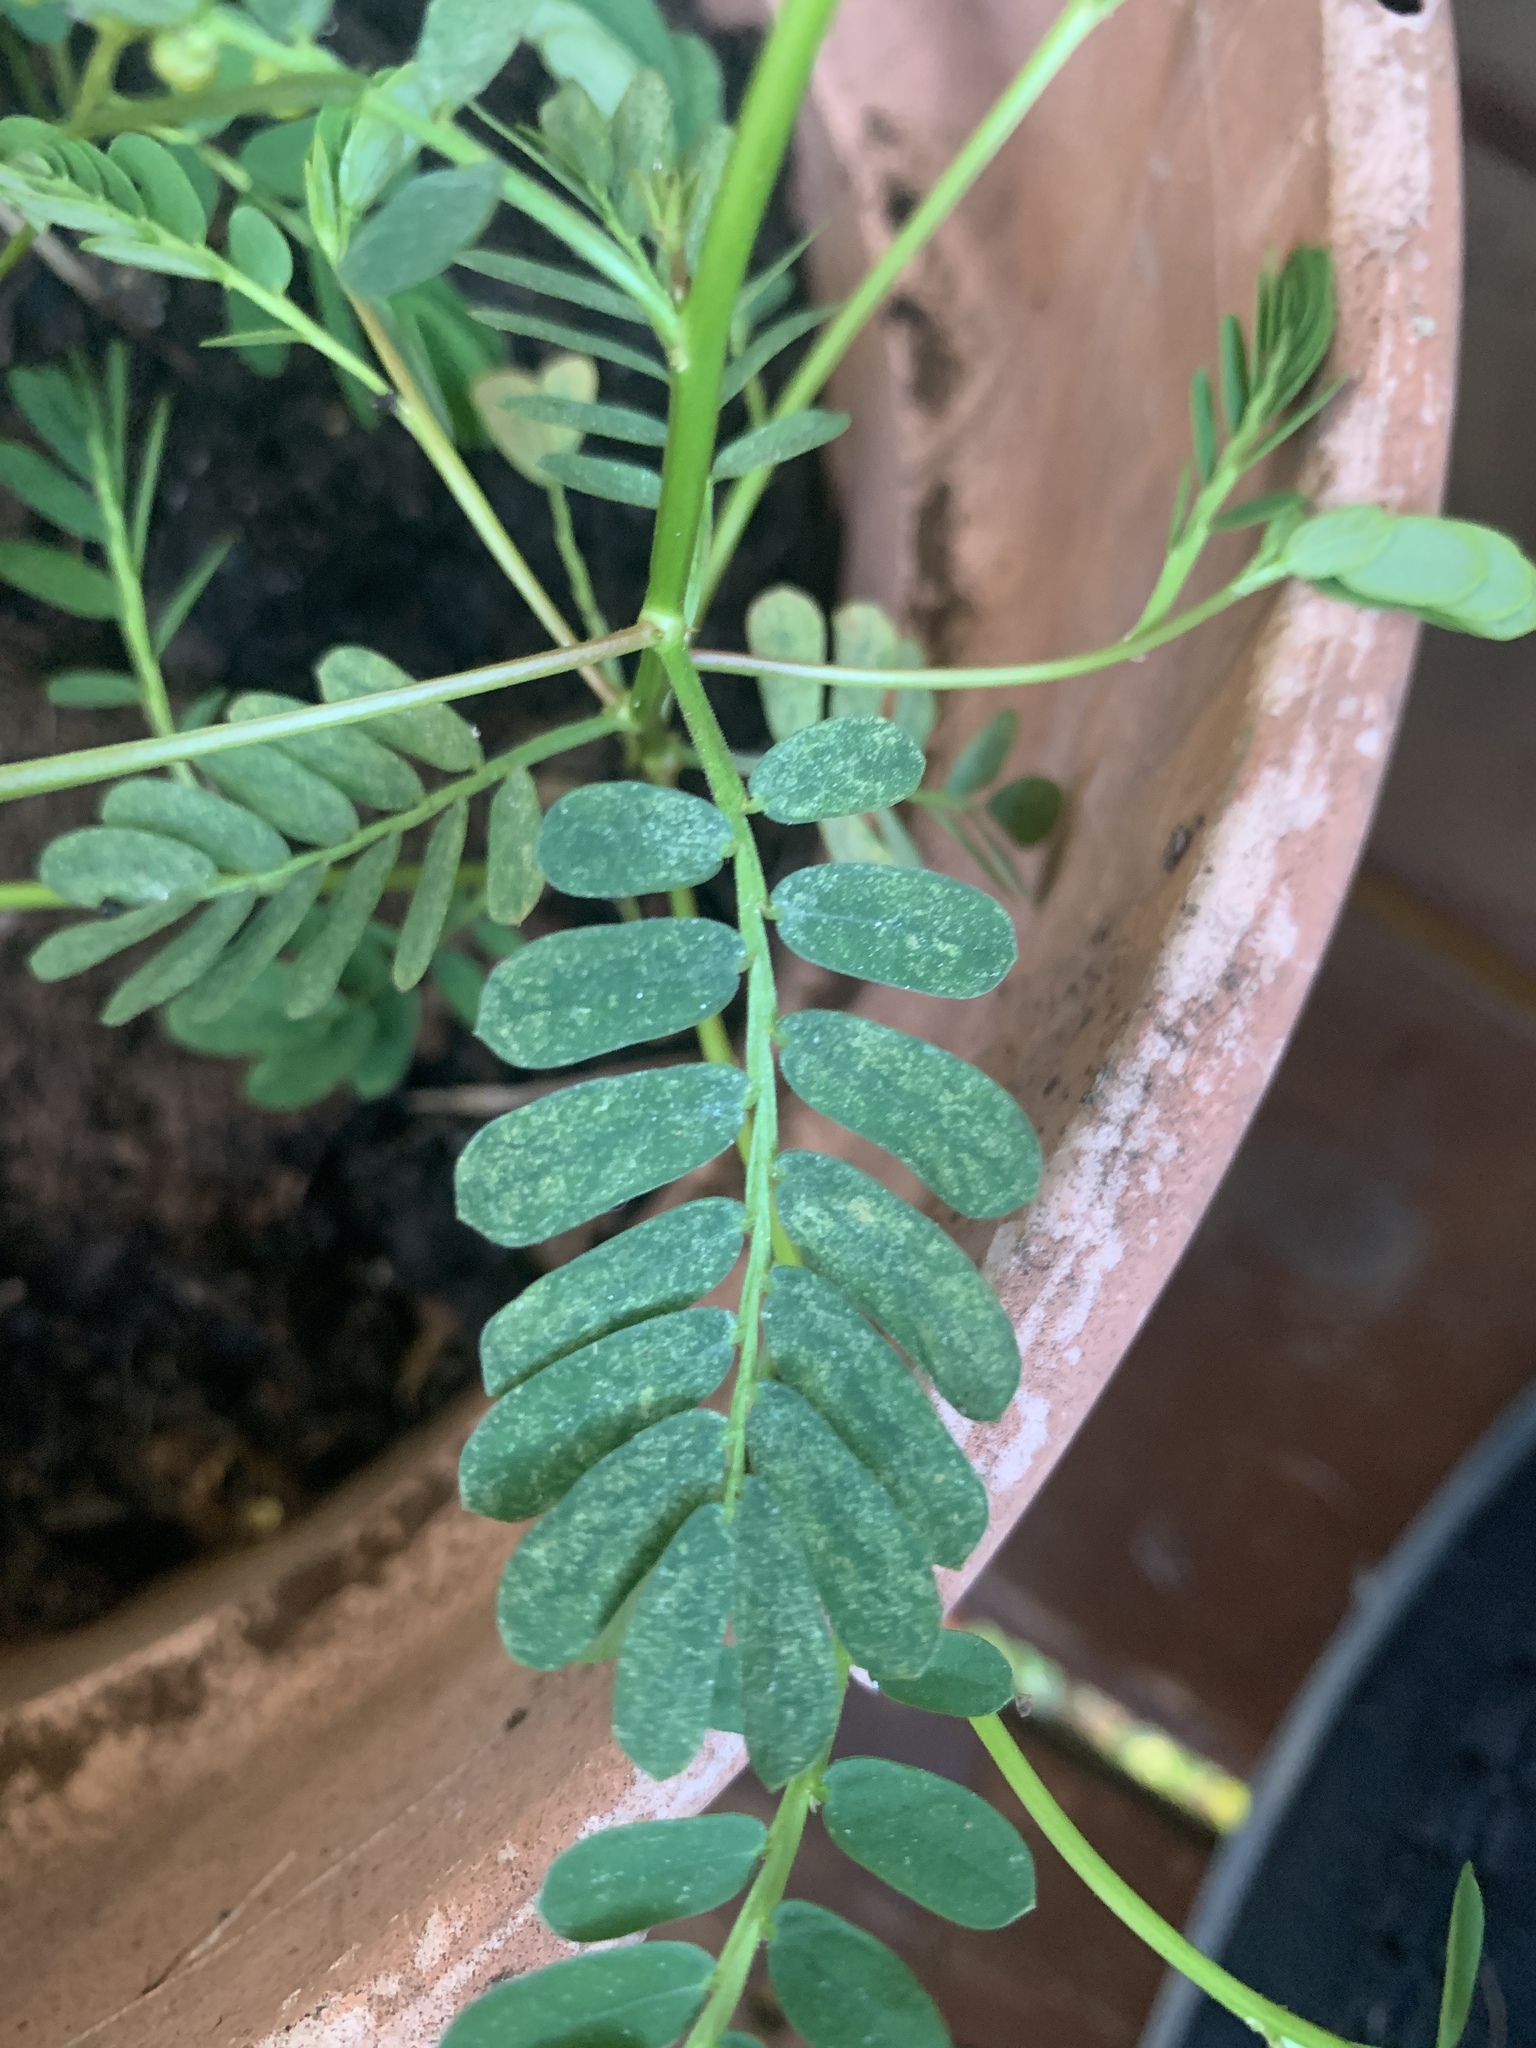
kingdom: Plantae
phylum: Tracheophyta
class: Magnoliopsida
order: Malpighiales
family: Phyllanthaceae
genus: Phyllanthus
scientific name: Phyllanthus urinaria
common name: Chamber bitter
